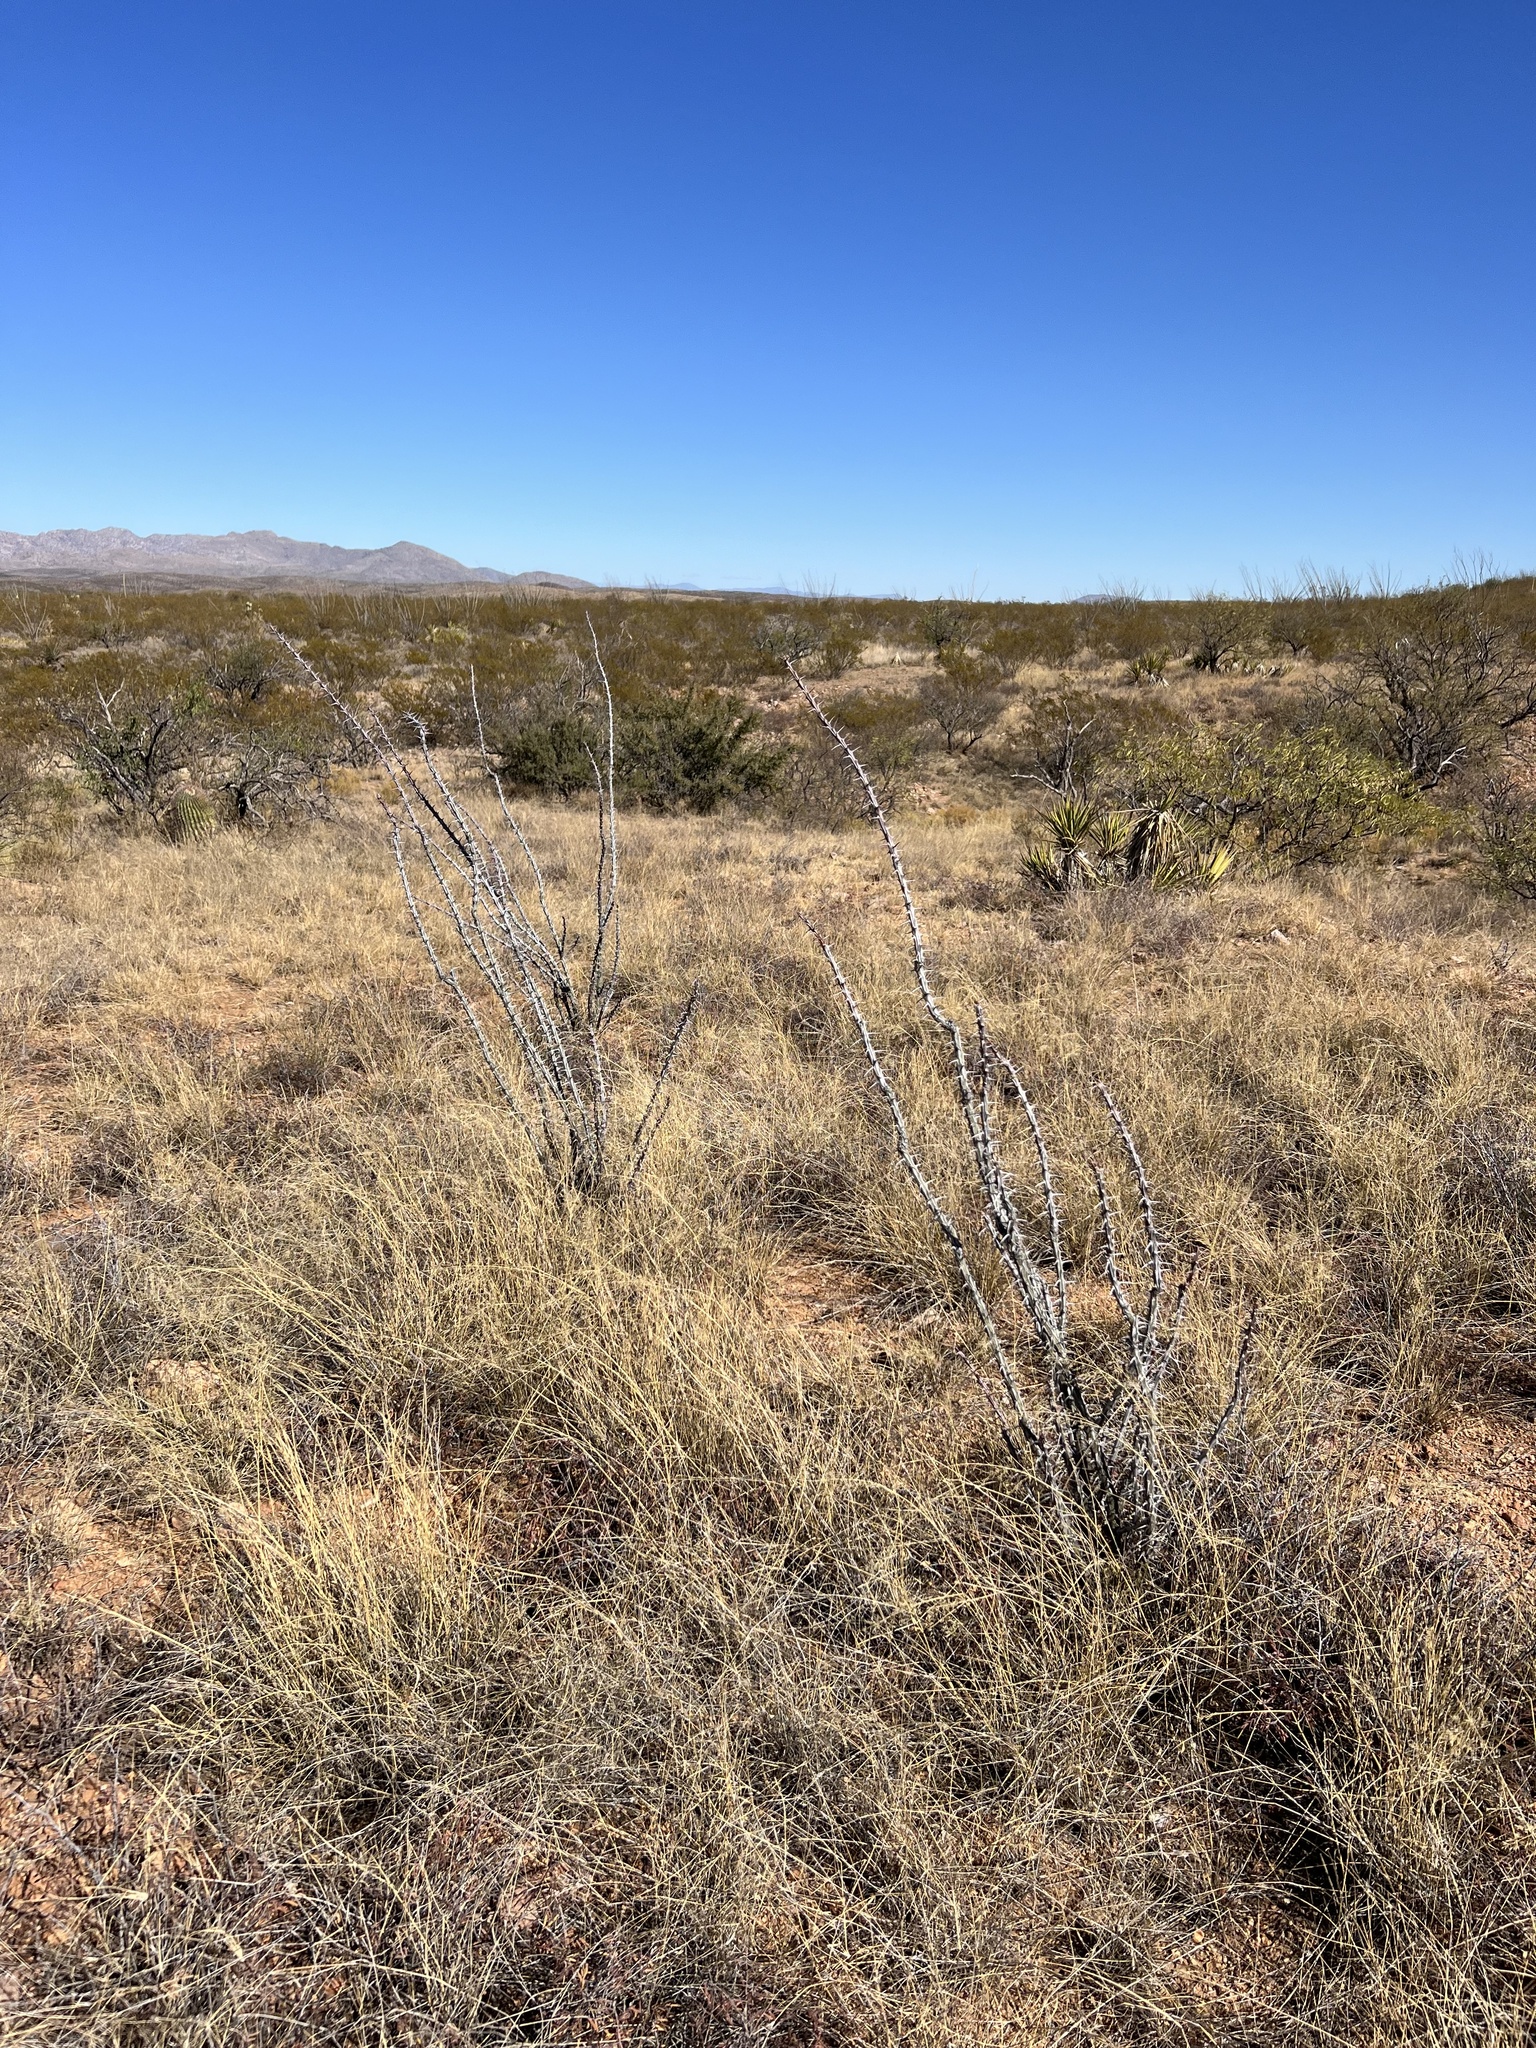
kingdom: Plantae
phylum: Tracheophyta
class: Magnoliopsida
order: Ericales
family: Fouquieriaceae
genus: Fouquieria
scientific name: Fouquieria splendens
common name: Vine-cactus
